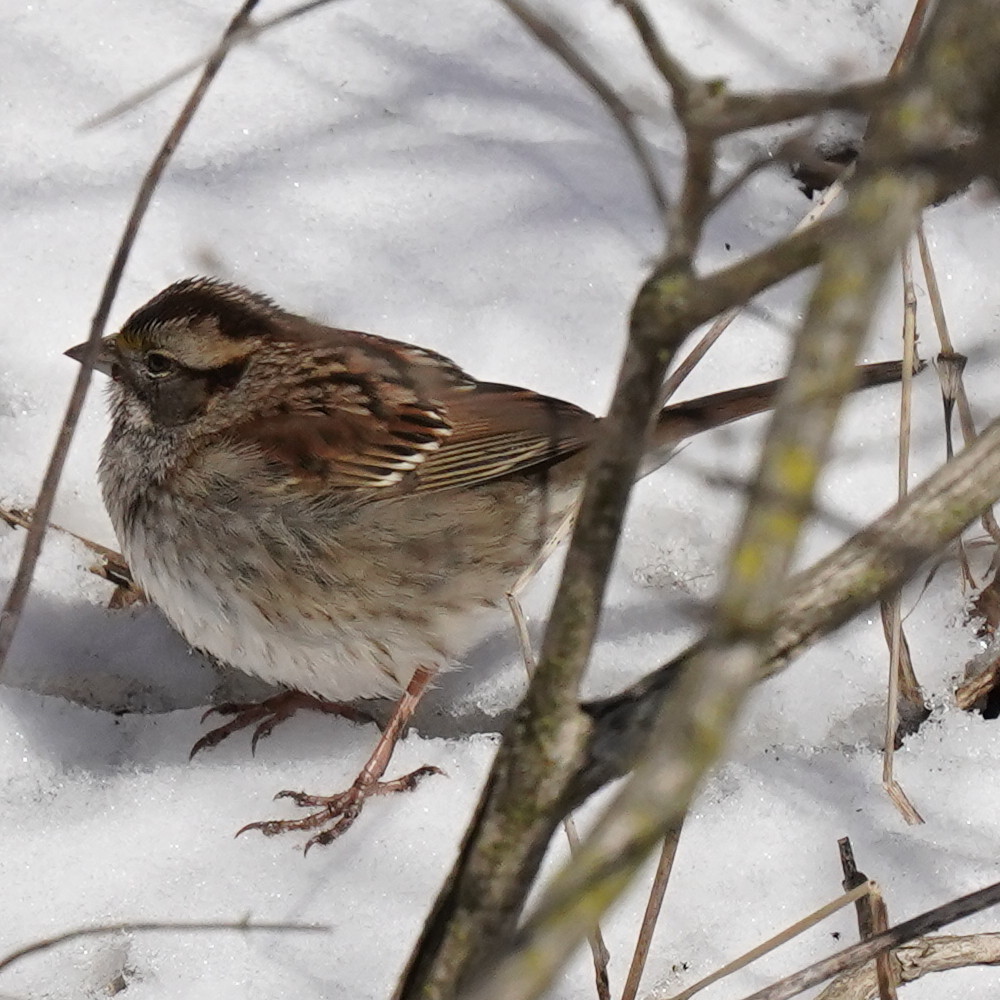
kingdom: Animalia
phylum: Chordata
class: Aves
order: Passeriformes
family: Passerellidae
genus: Zonotrichia
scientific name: Zonotrichia albicollis
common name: White-throated sparrow
